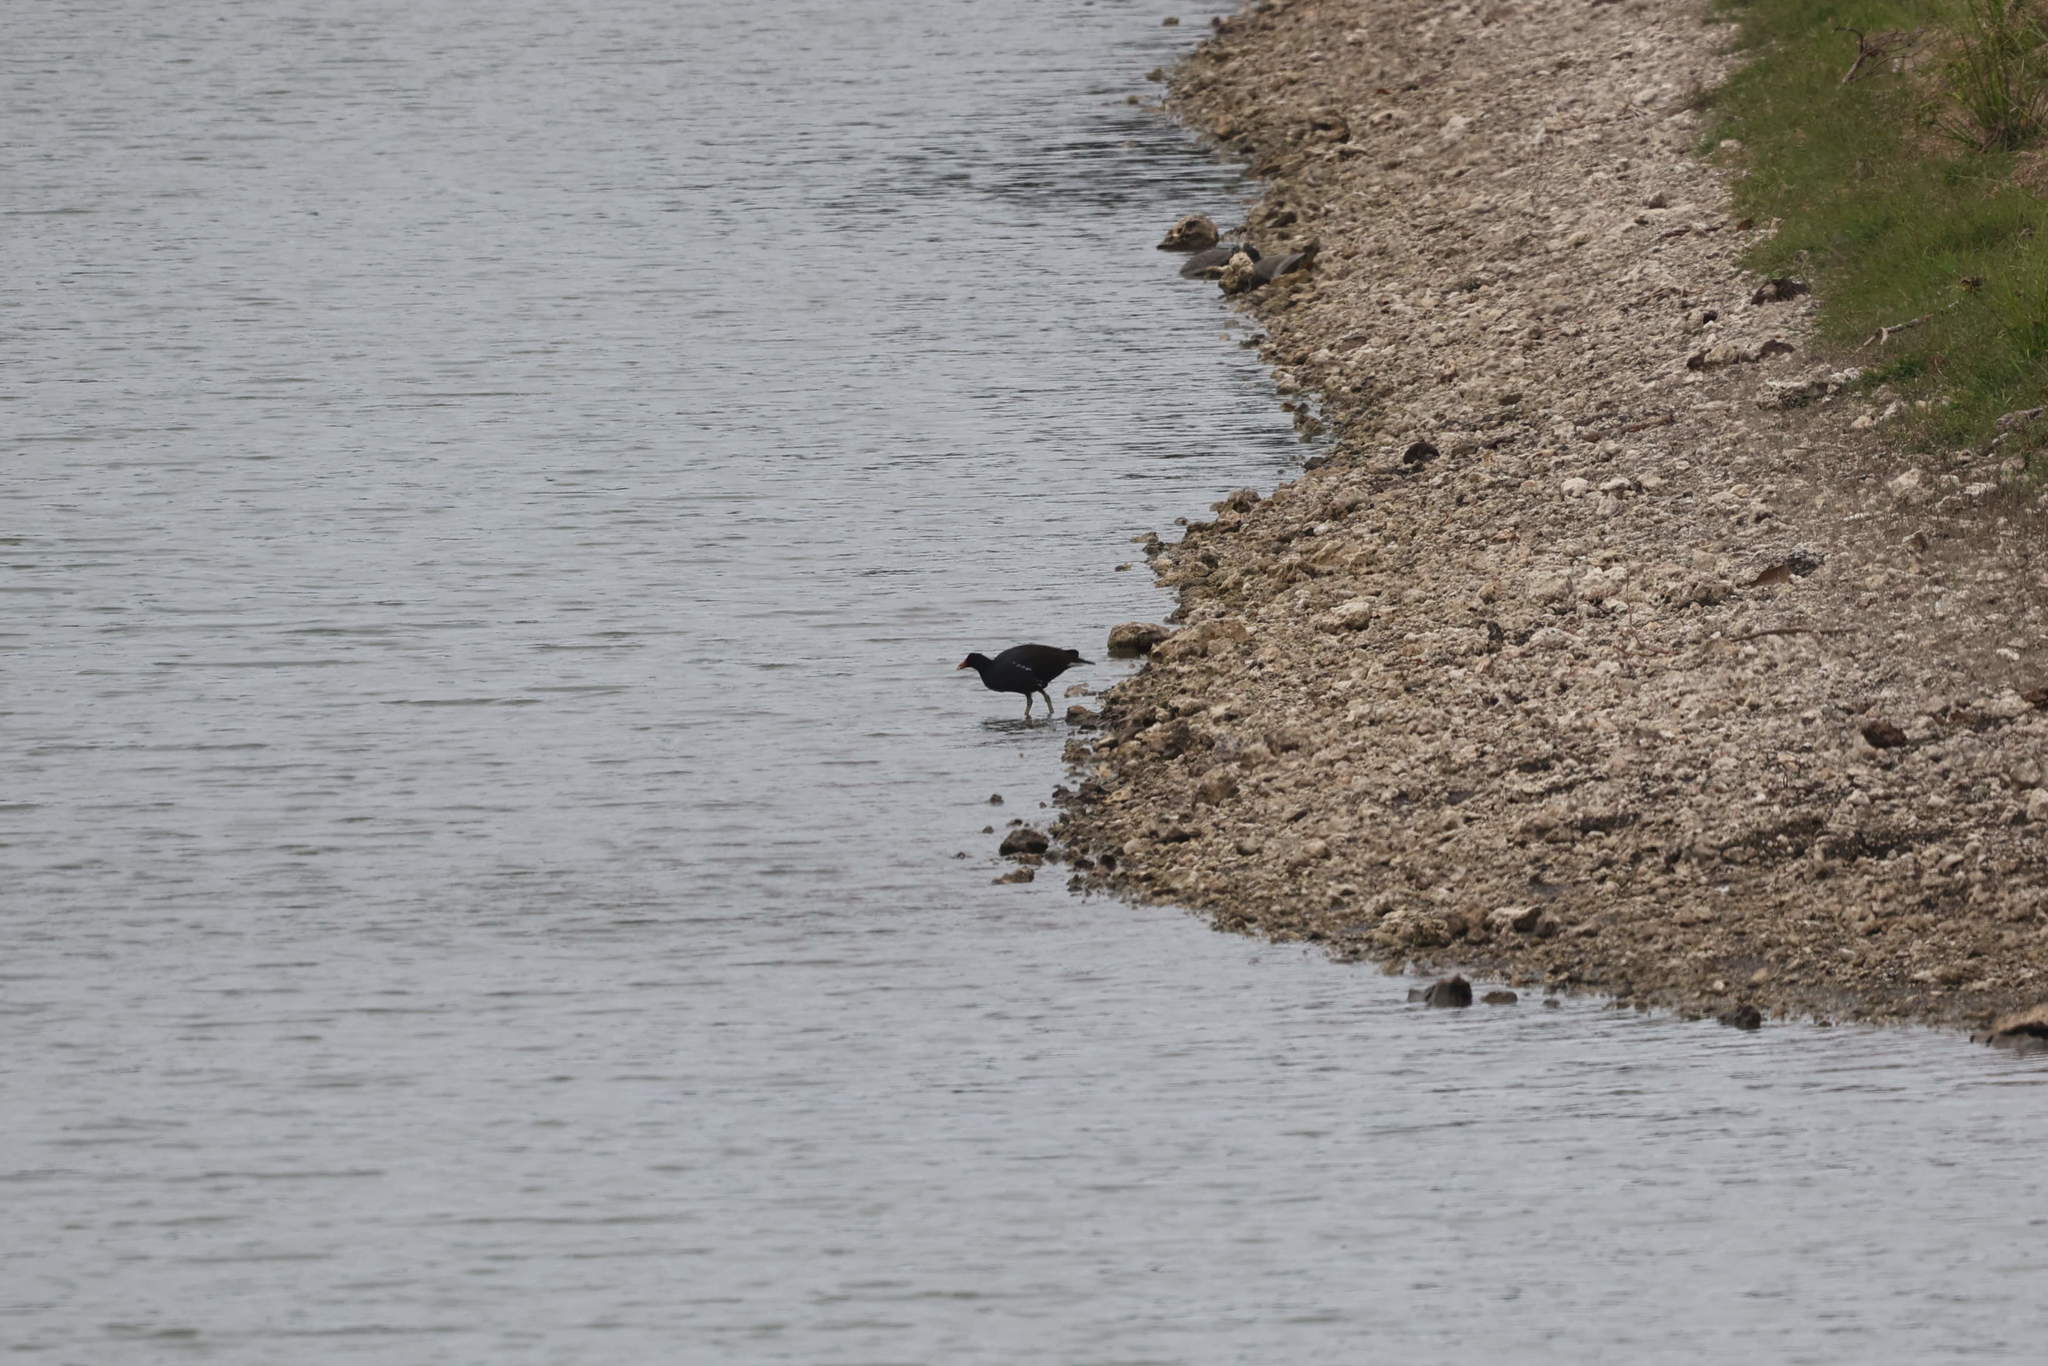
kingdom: Animalia
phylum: Chordata
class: Aves
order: Gruiformes
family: Rallidae
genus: Gallinula
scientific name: Gallinula chloropus
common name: Common moorhen
